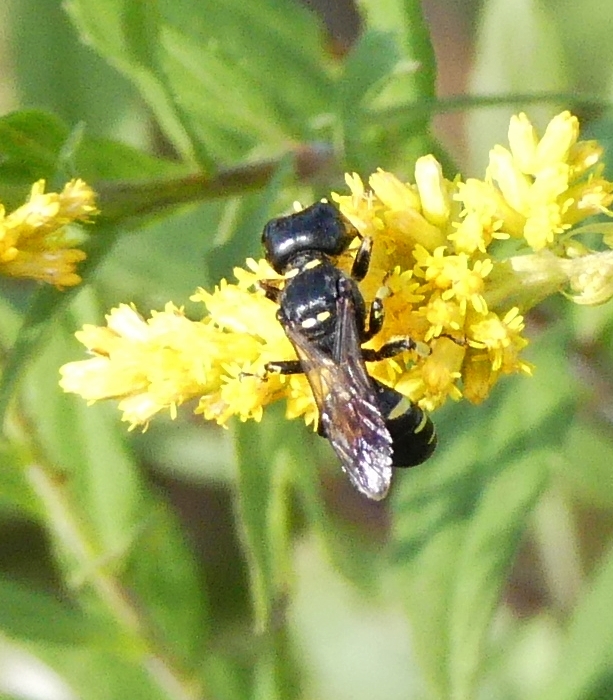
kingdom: Animalia
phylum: Arthropoda
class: Insecta
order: Hymenoptera
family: Crabronidae
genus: Ectemnius
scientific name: Ectemnius maculosus
